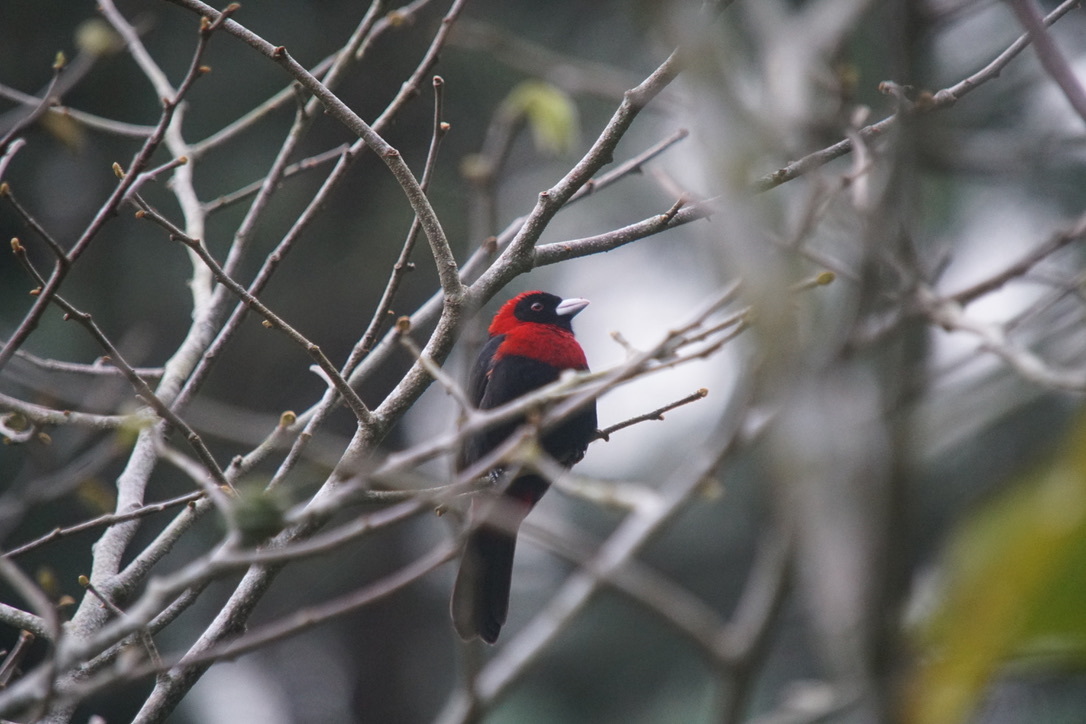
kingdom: Animalia
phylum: Chordata
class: Aves
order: Passeriformes
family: Thraupidae
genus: Ramphocelus
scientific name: Ramphocelus sanguinolentus
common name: Crimson-collared tanager
